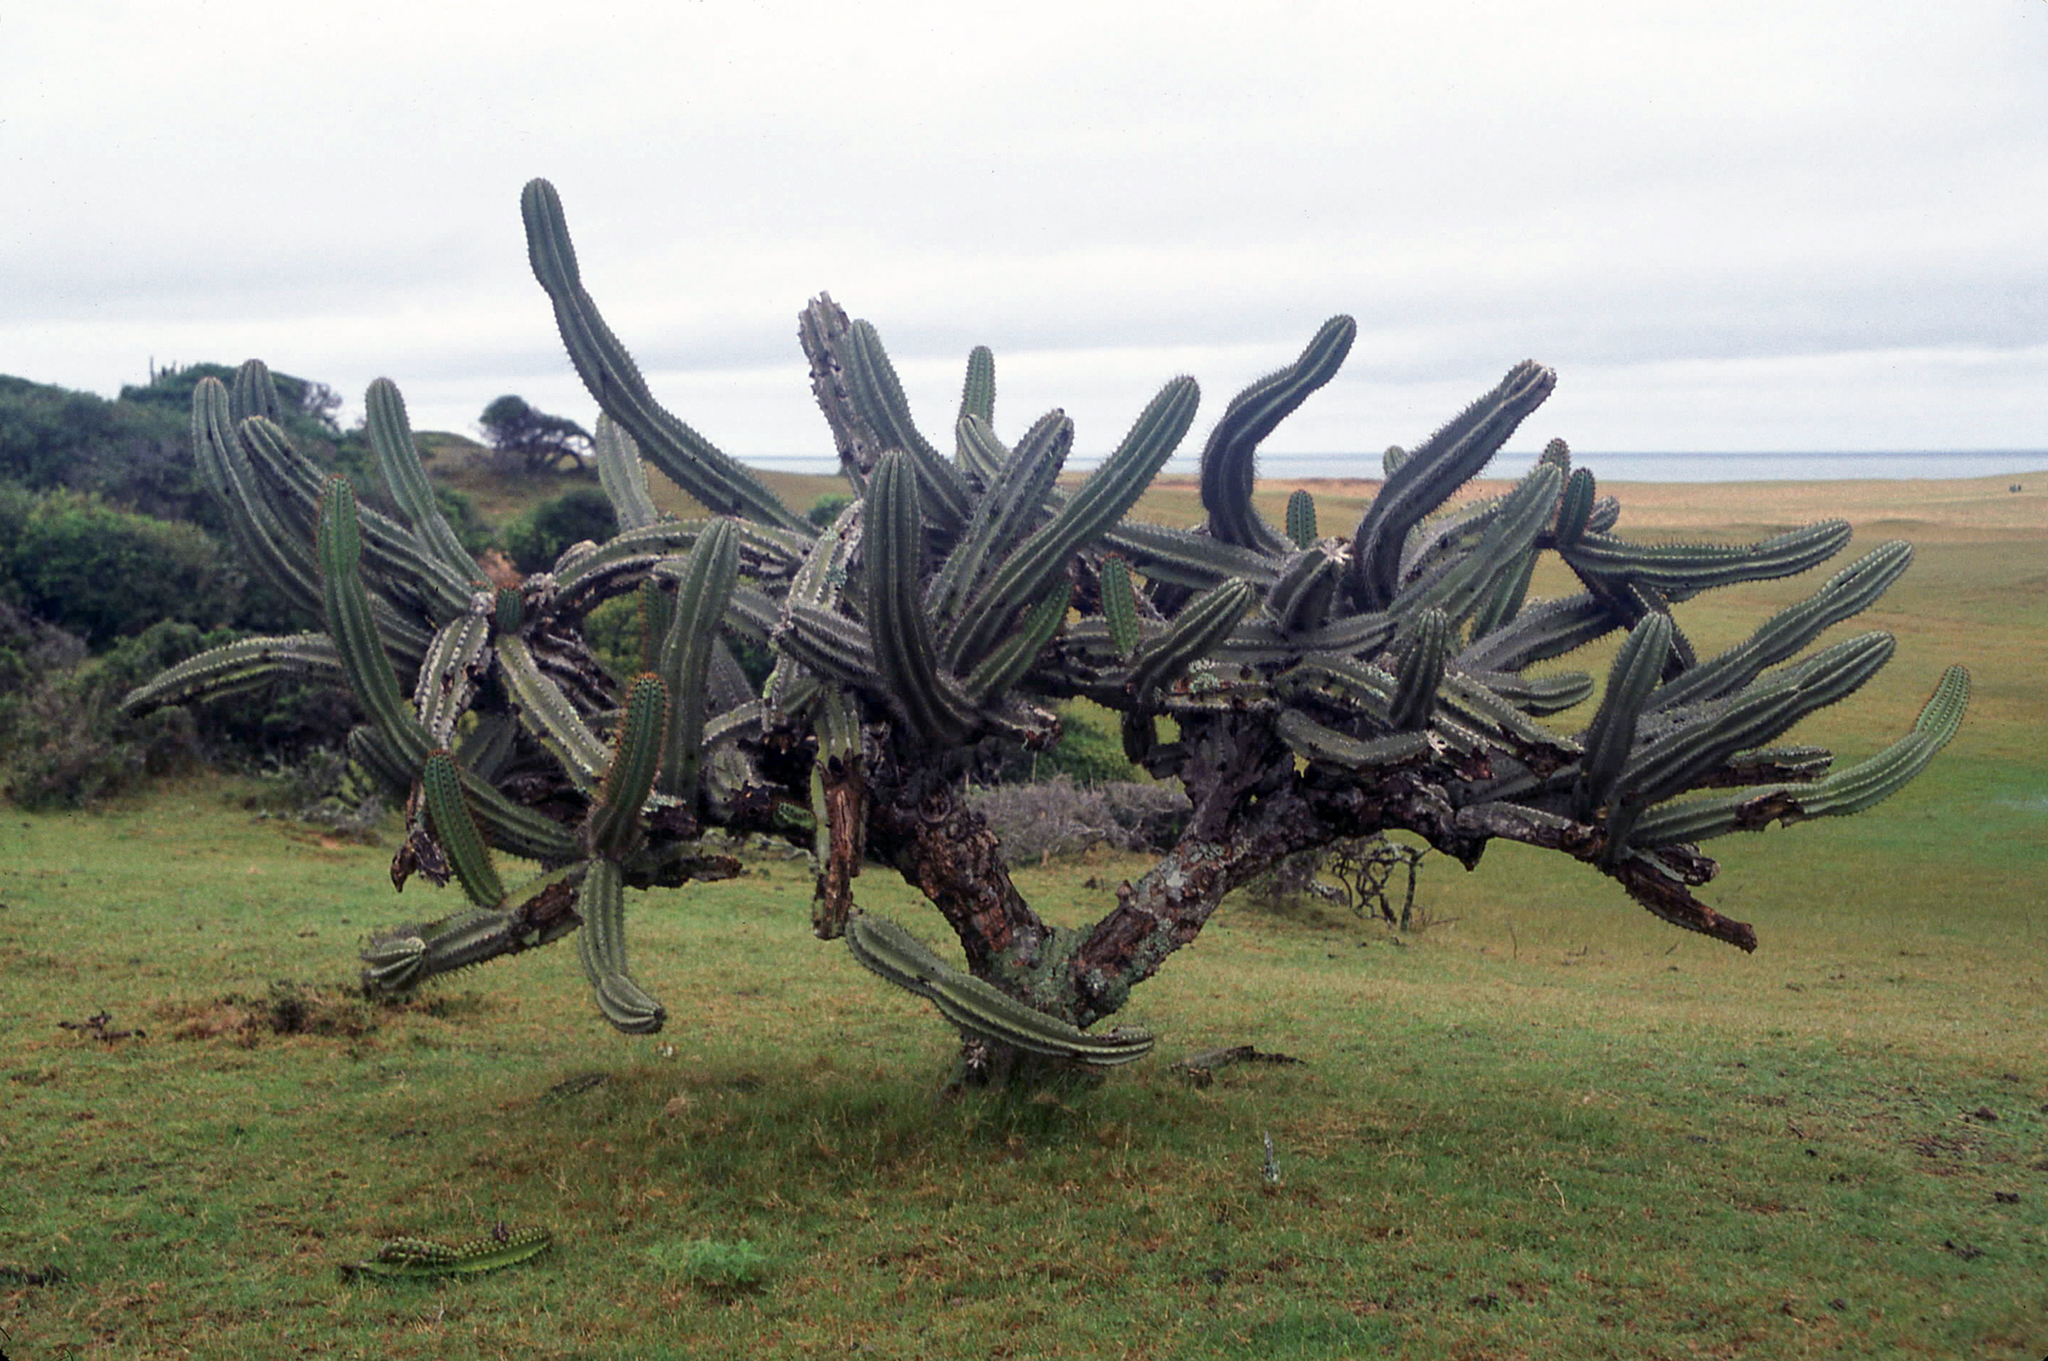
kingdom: Plantae
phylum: Tracheophyta
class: Magnoliopsida
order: Caryophyllales
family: Cactaceae
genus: Cereus
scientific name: Cereus hildmannianus
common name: Hedge cactus
